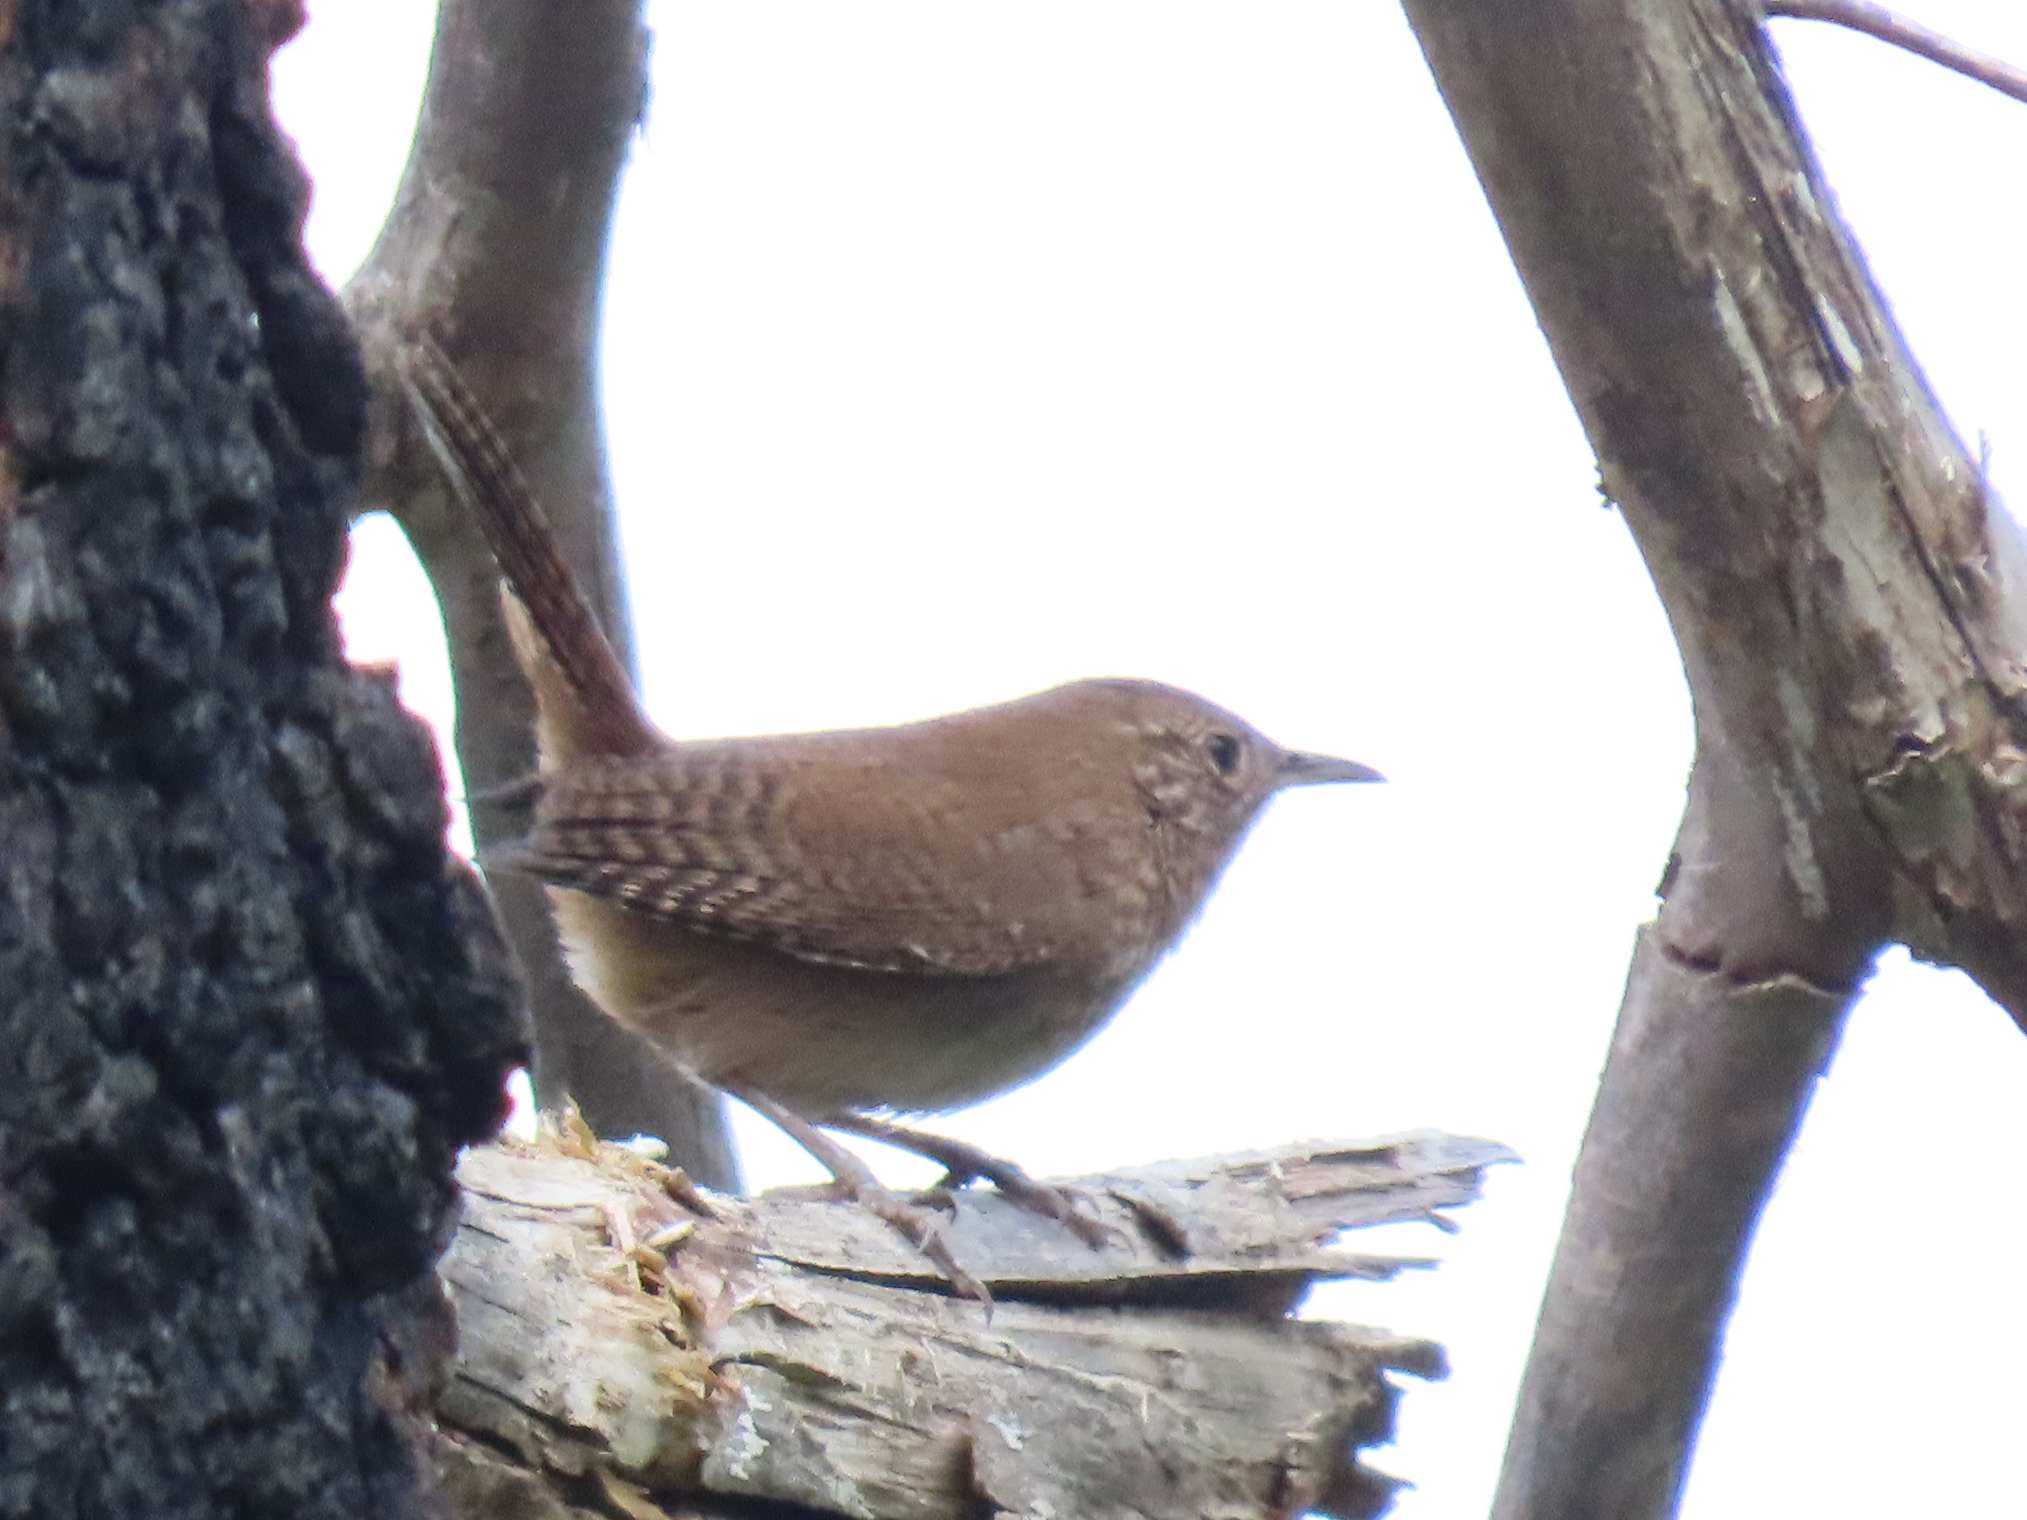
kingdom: Animalia
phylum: Chordata
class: Aves
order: Passeriformes
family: Troglodytidae
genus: Troglodytes
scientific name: Troglodytes aedon
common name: House wren
